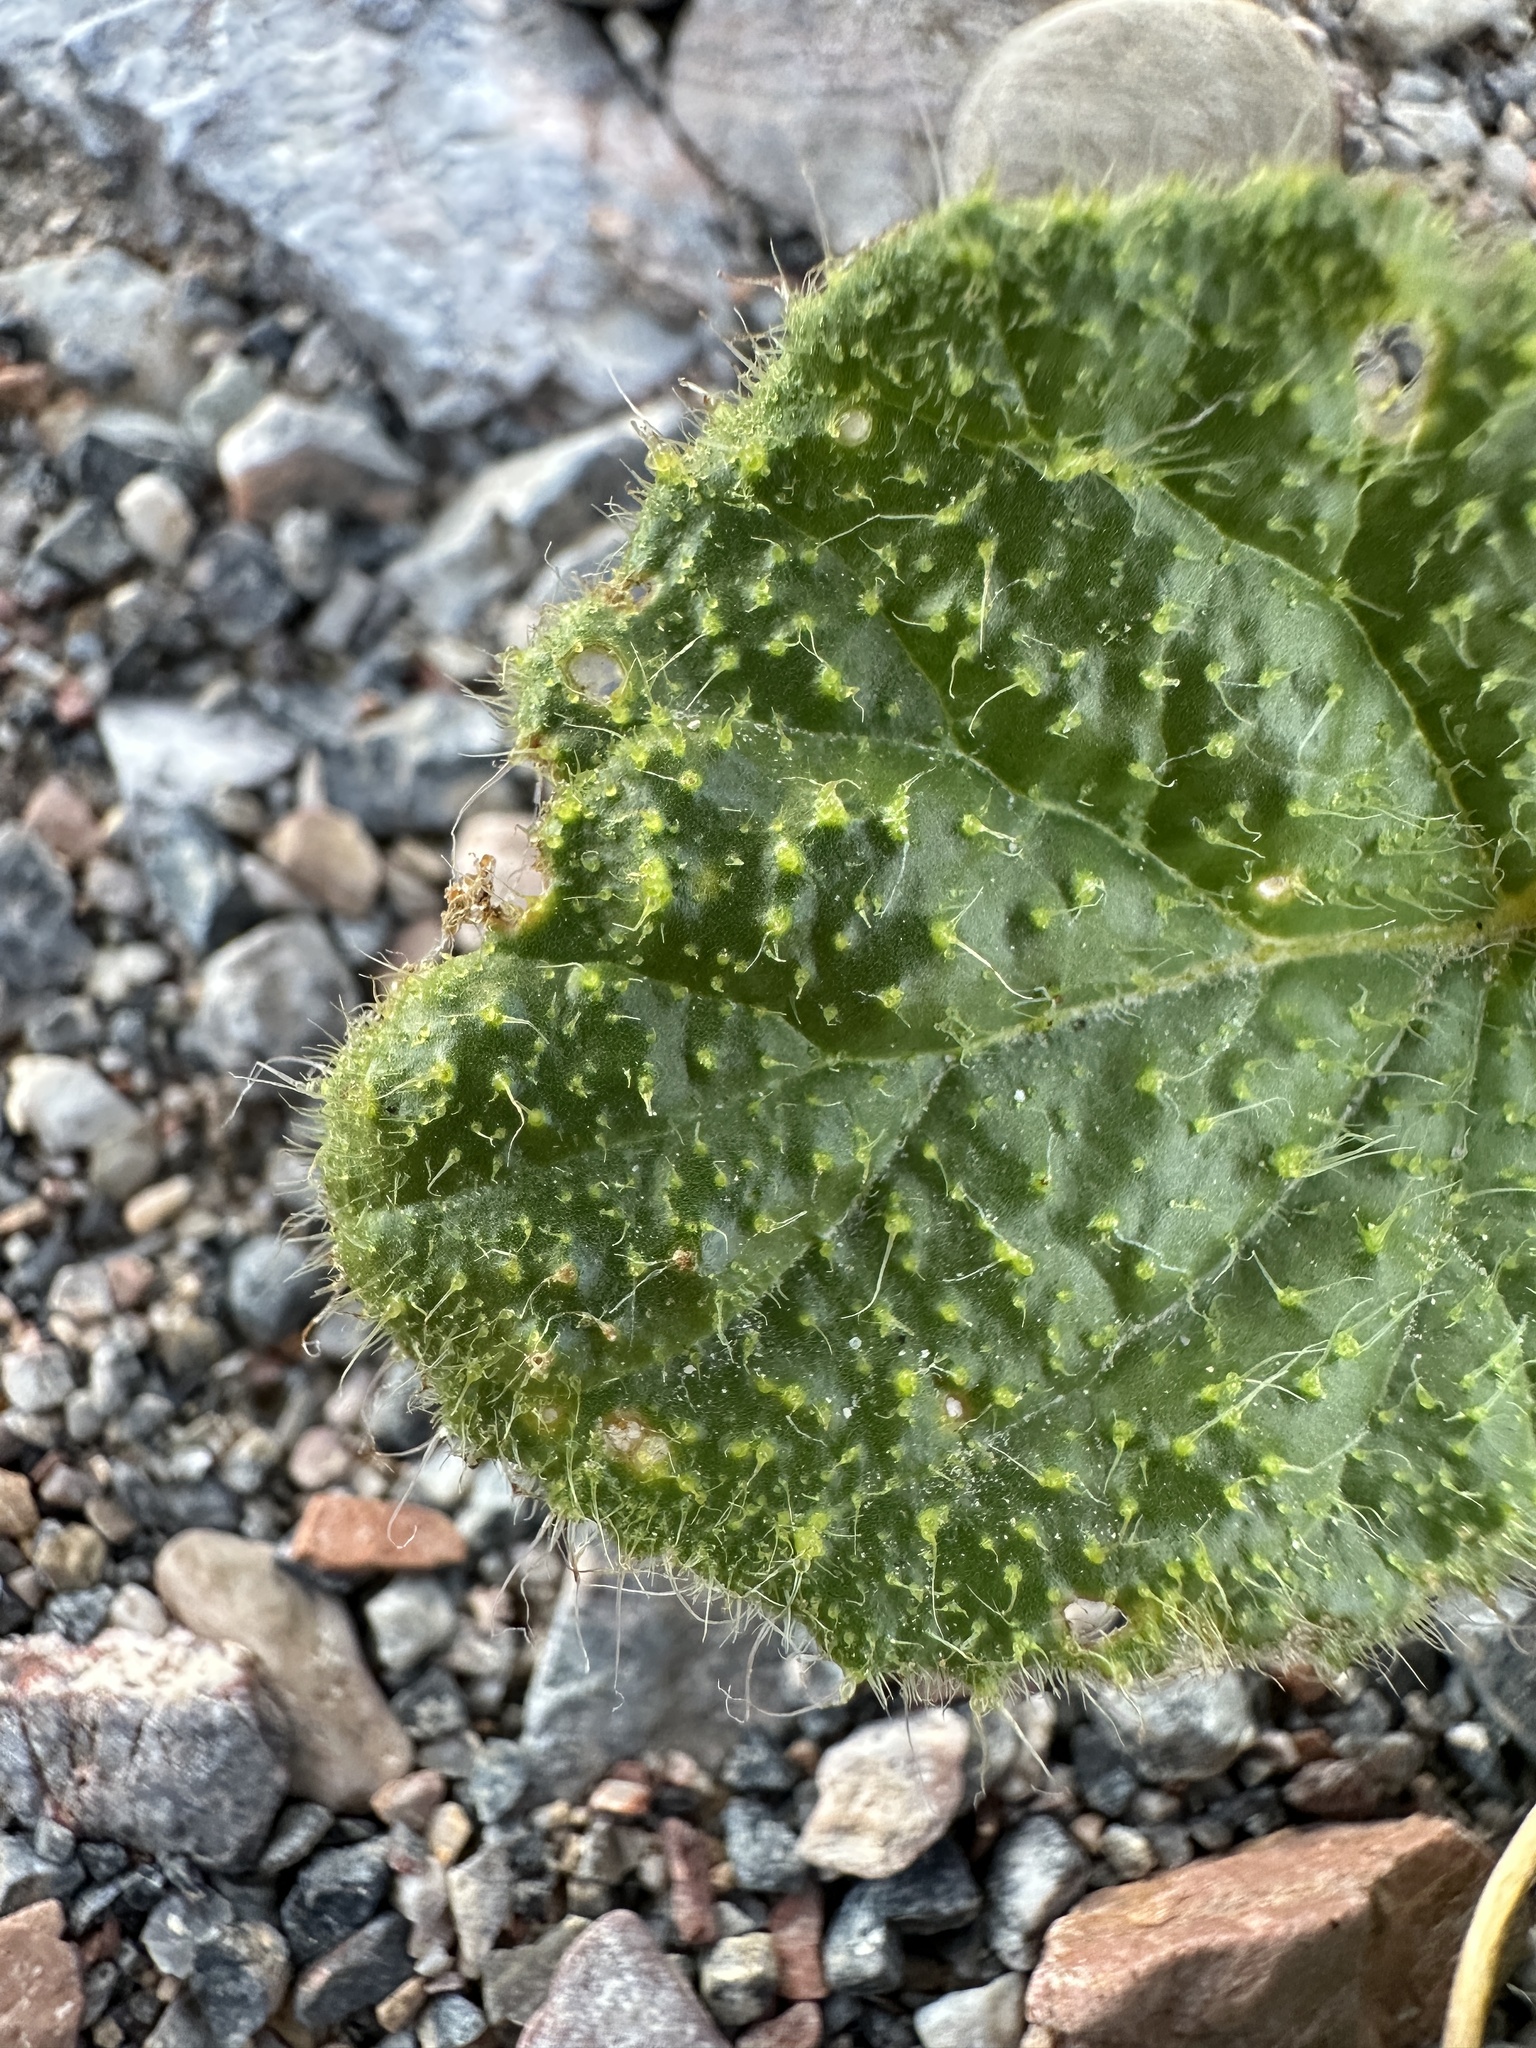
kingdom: Plantae
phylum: Tracheophyta
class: Magnoliopsida
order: Caryophyllales
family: Nyctaginaceae
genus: Anulocaulis
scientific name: Anulocaulis annulatus
